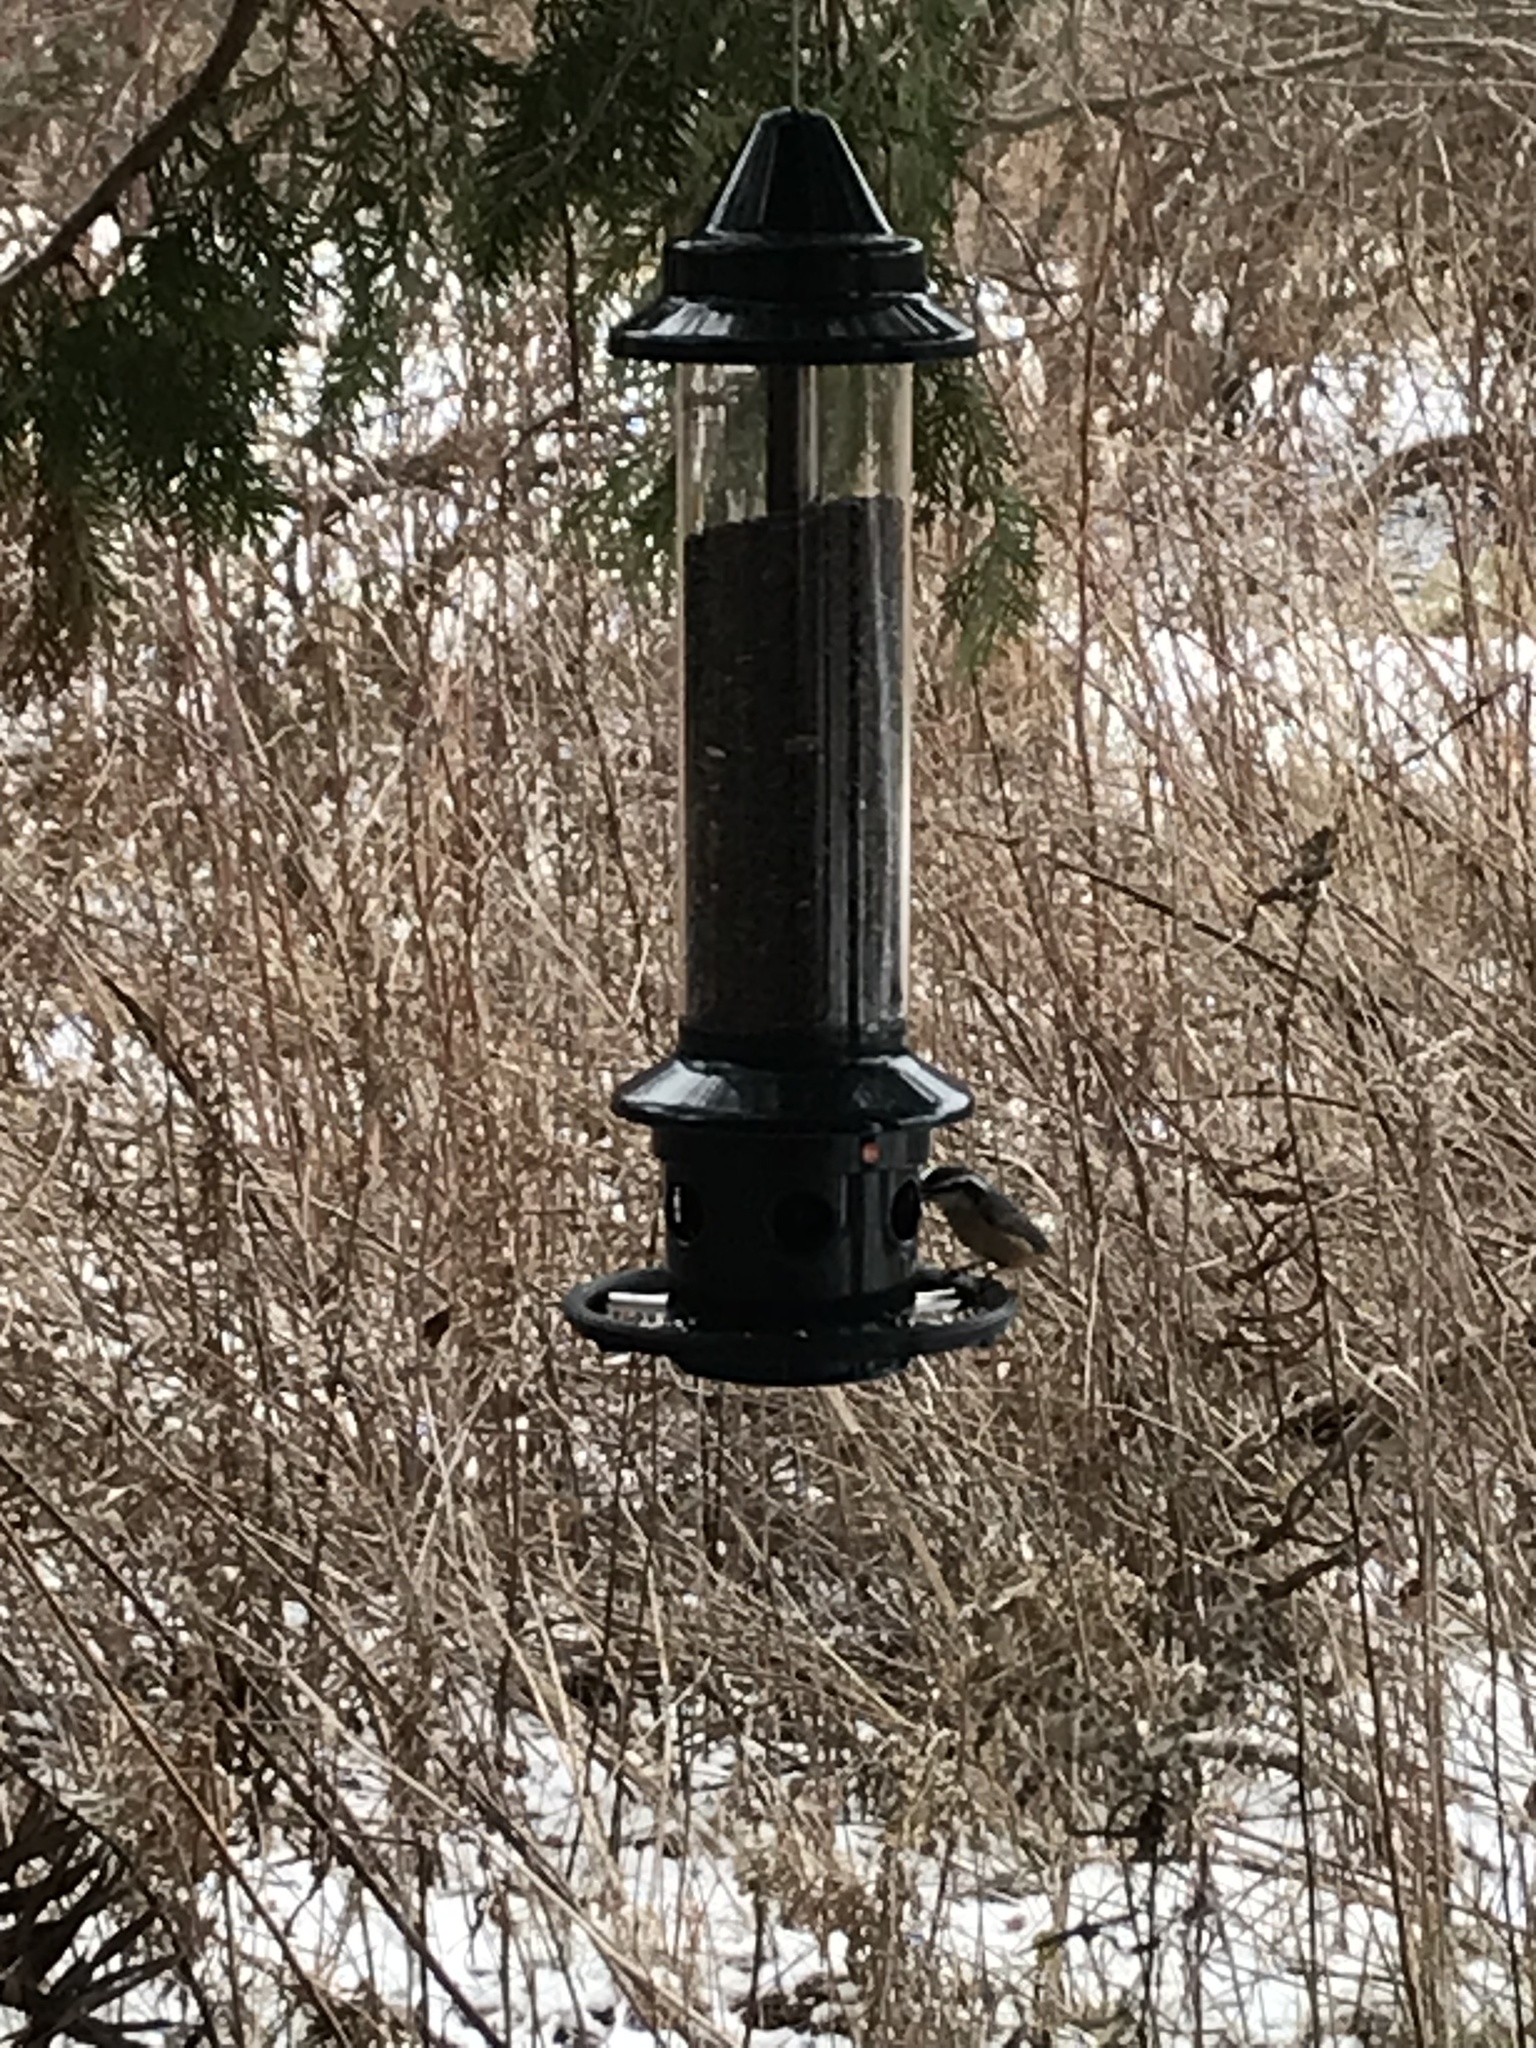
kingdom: Animalia
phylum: Chordata
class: Aves
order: Passeriformes
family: Sittidae
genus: Sitta
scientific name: Sitta canadensis
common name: Red-breasted nuthatch
